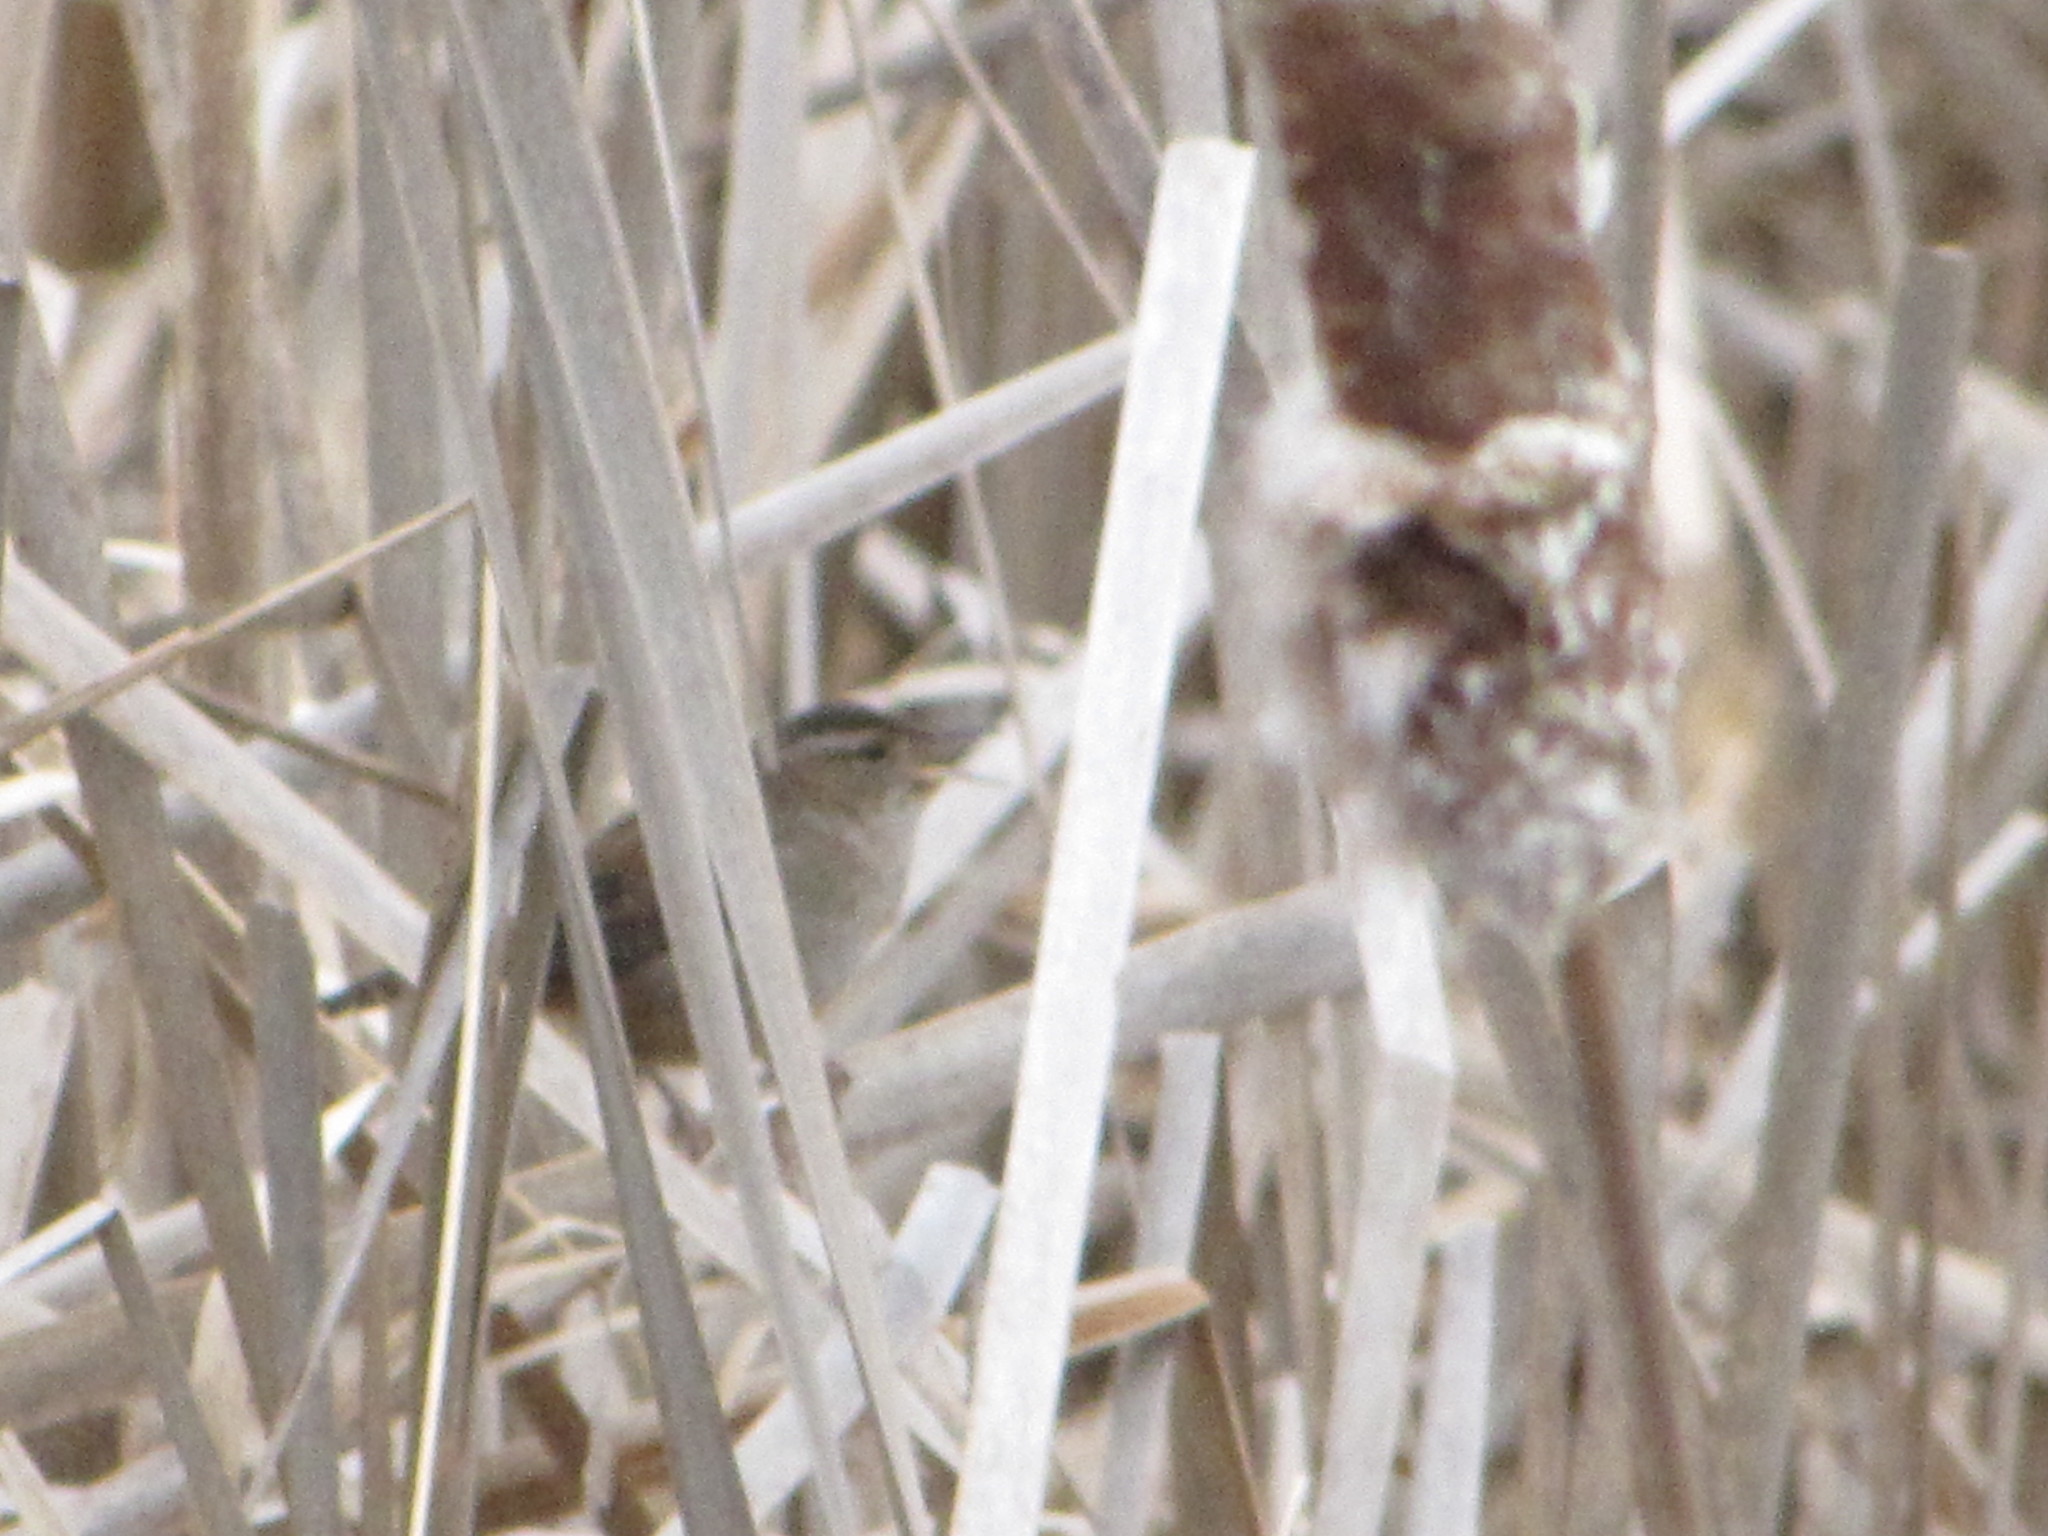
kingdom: Animalia
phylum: Chordata
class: Aves
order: Passeriformes
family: Troglodytidae
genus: Cistothorus
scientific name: Cistothorus palustris
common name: Marsh wren
